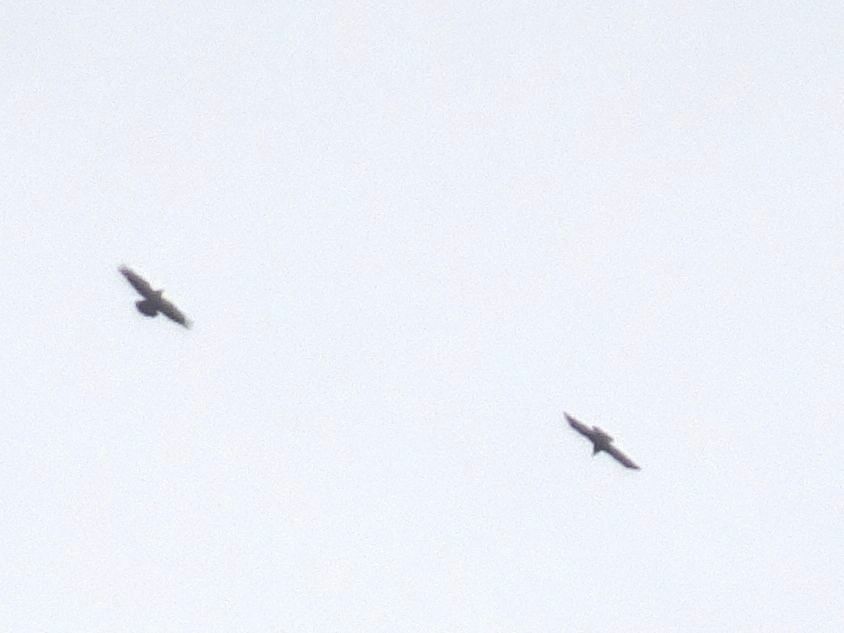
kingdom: Animalia
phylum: Chordata
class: Aves
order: Passeriformes
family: Corvidae
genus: Corvus
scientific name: Corvus frugilegus
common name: Rook
